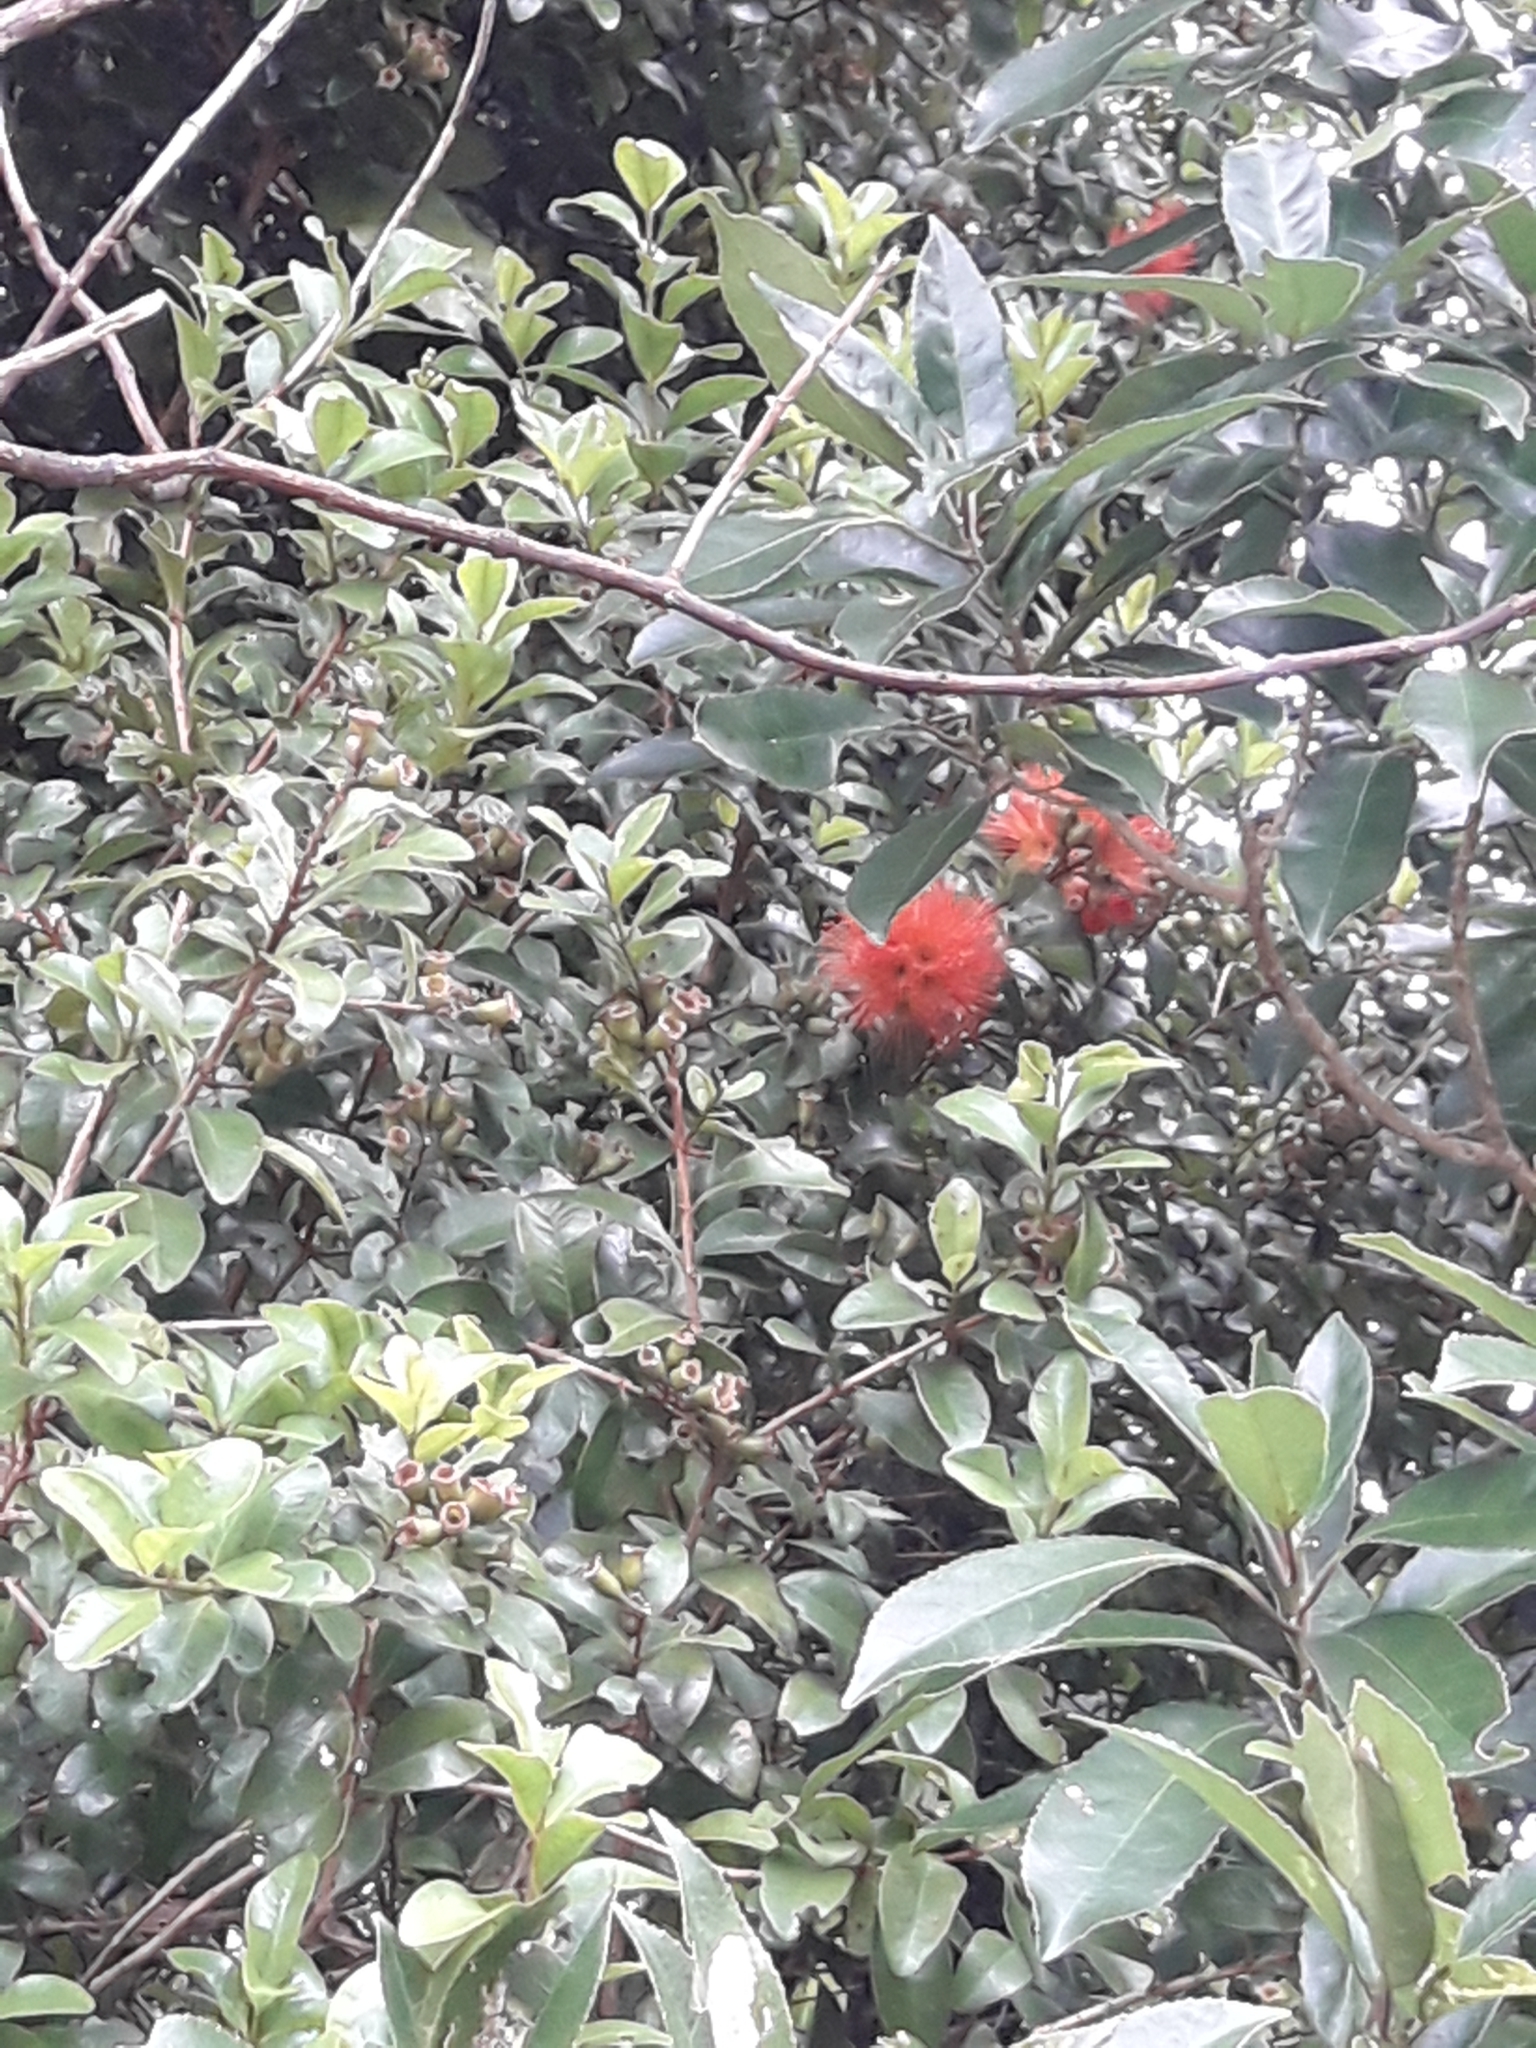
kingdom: Plantae
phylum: Tracheophyta
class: Magnoliopsida
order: Myrtales
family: Myrtaceae
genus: Metrosideros
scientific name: Metrosideros fulgens
